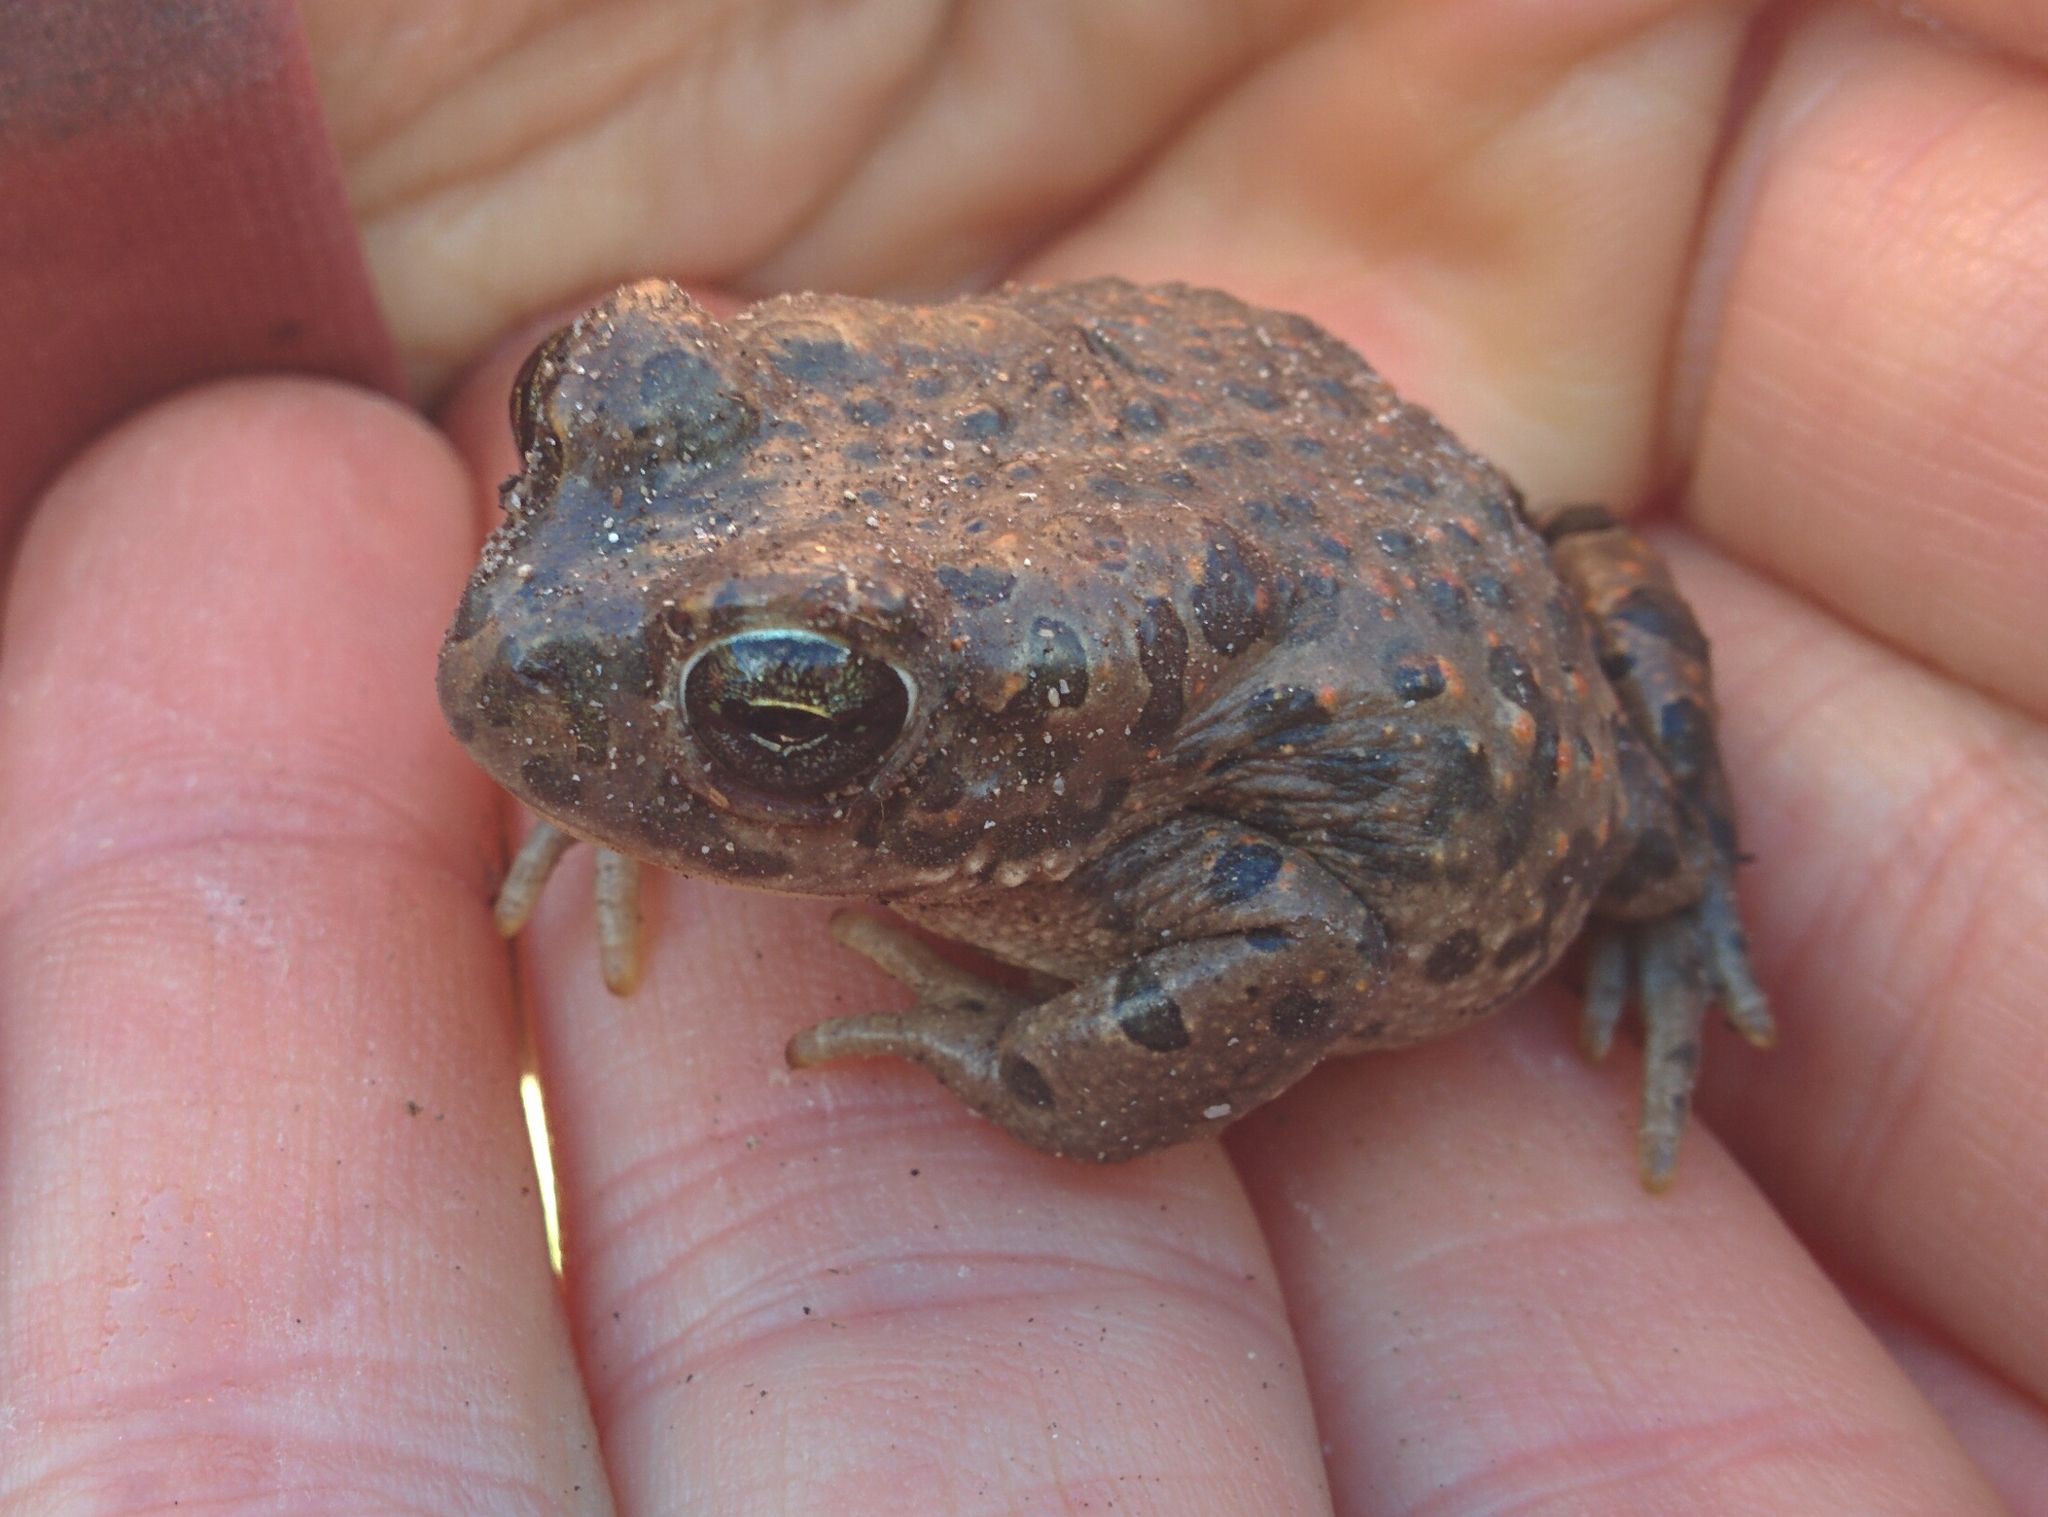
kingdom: Animalia
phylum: Chordata
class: Amphibia
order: Anura
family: Bufonidae
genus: Bufotes
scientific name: Bufotes viridis
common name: European green toad
